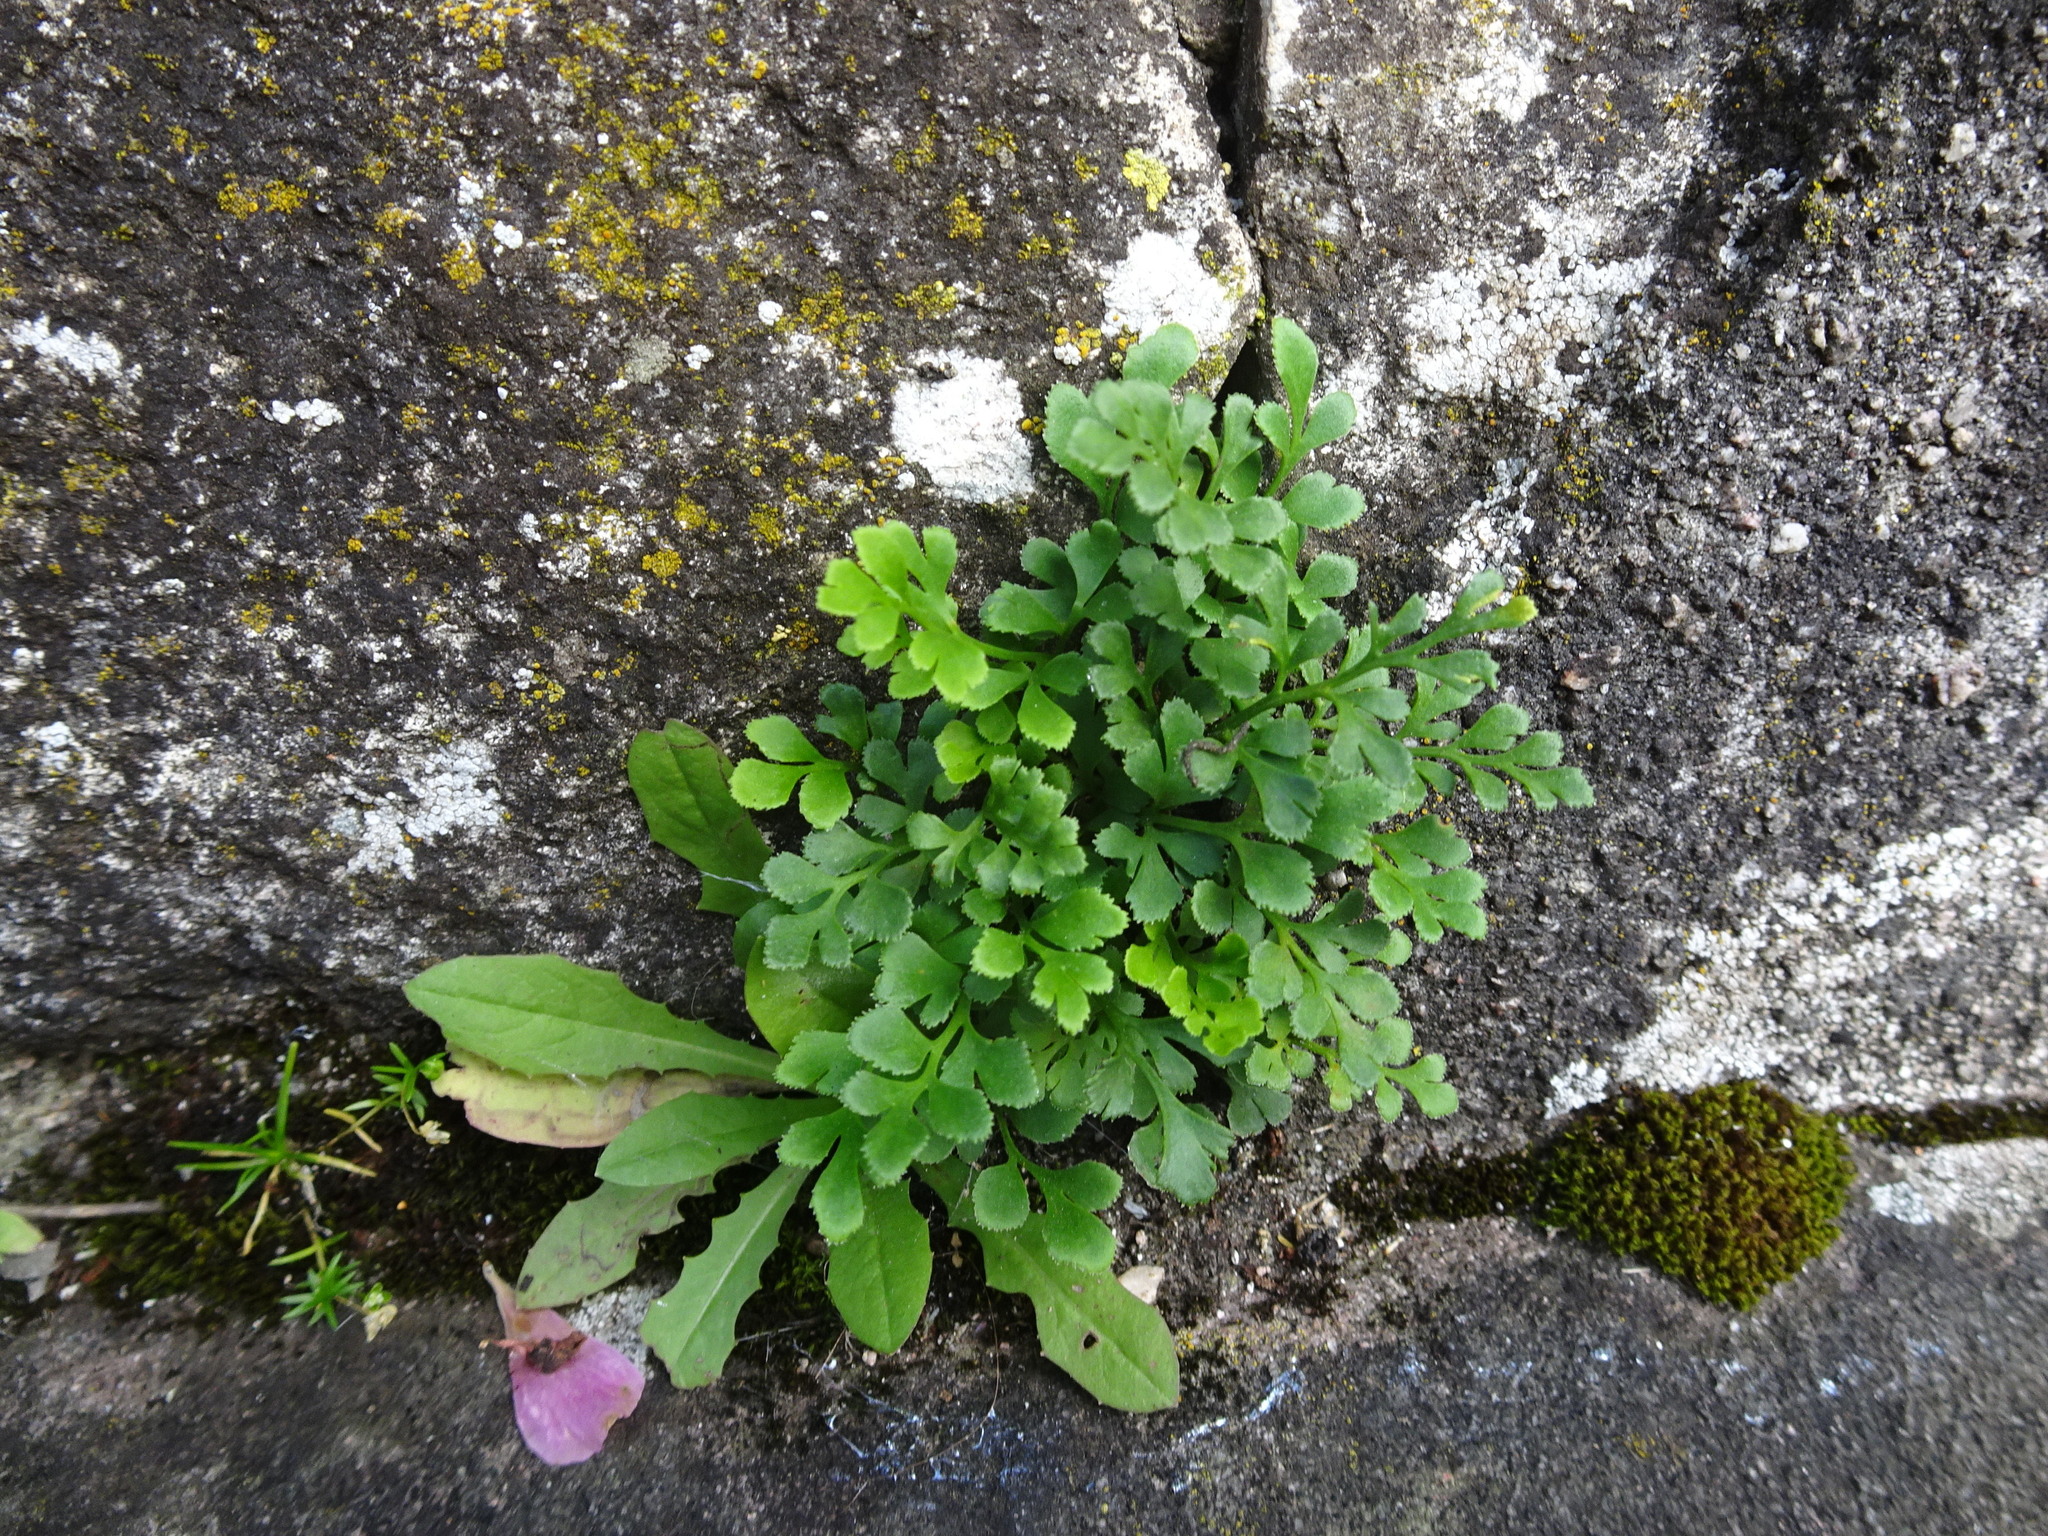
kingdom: Plantae
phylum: Tracheophyta
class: Polypodiopsida
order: Polypodiales
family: Aspleniaceae
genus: Asplenium
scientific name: Asplenium ruta-muraria
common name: Wall-rue
